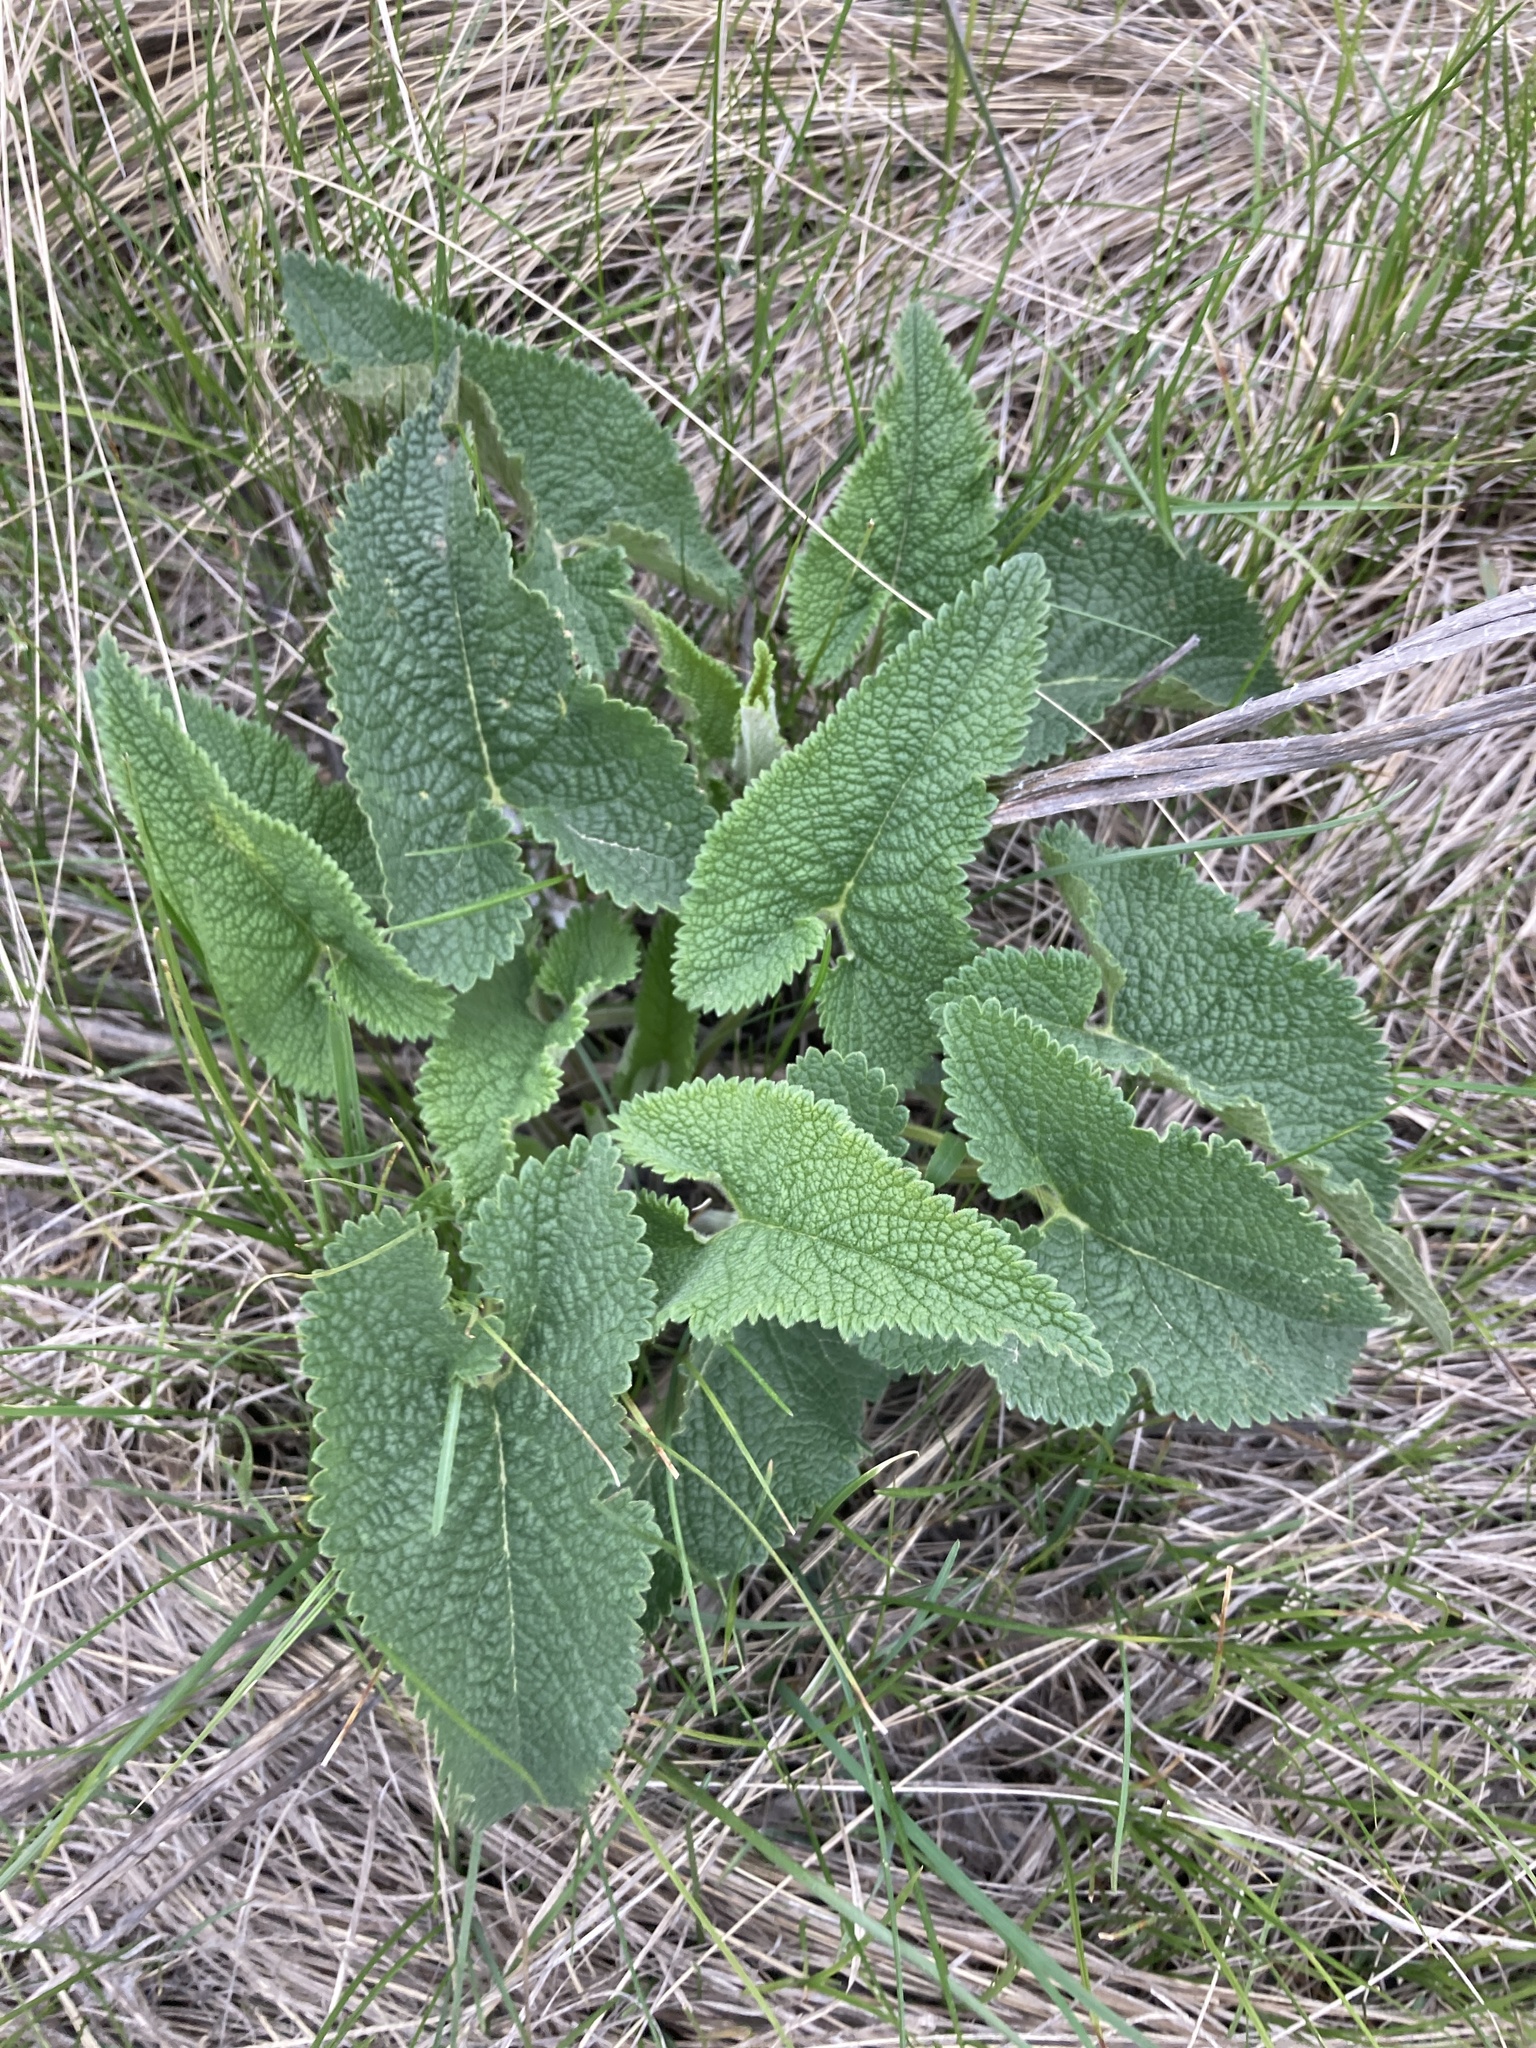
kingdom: Plantae
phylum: Tracheophyta
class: Magnoliopsida
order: Lamiales
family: Lamiaceae
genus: Phlomoides
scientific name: Phlomoides tuberosa
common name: Tuberous jerusalem sage
